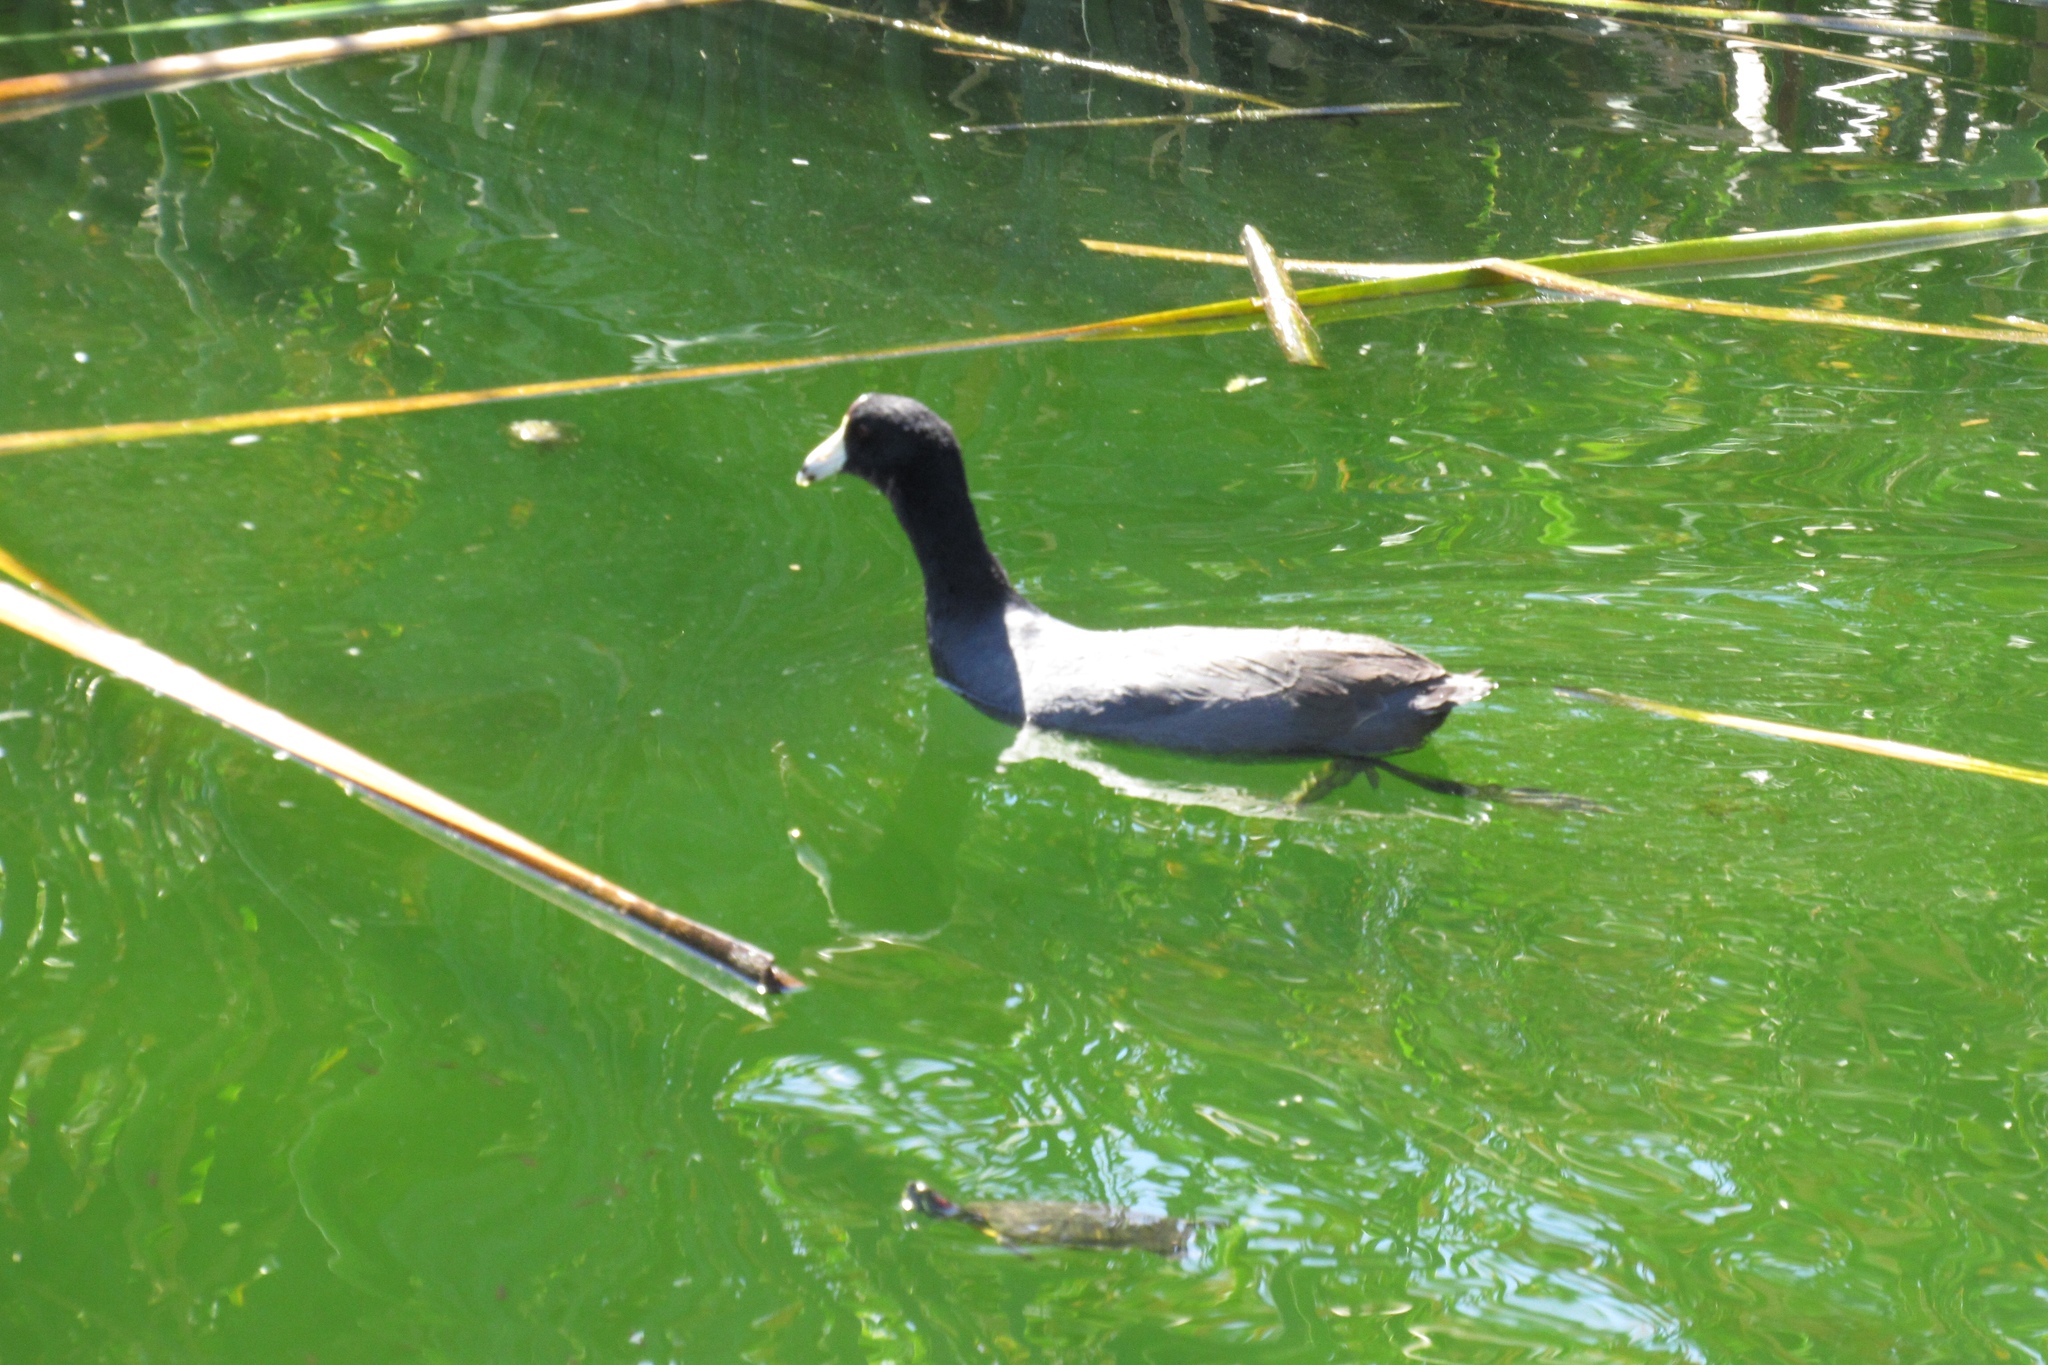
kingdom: Animalia
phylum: Chordata
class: Aves
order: Gruiformes
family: Rallidae
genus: Fulica
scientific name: Fulica americana
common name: American coot
